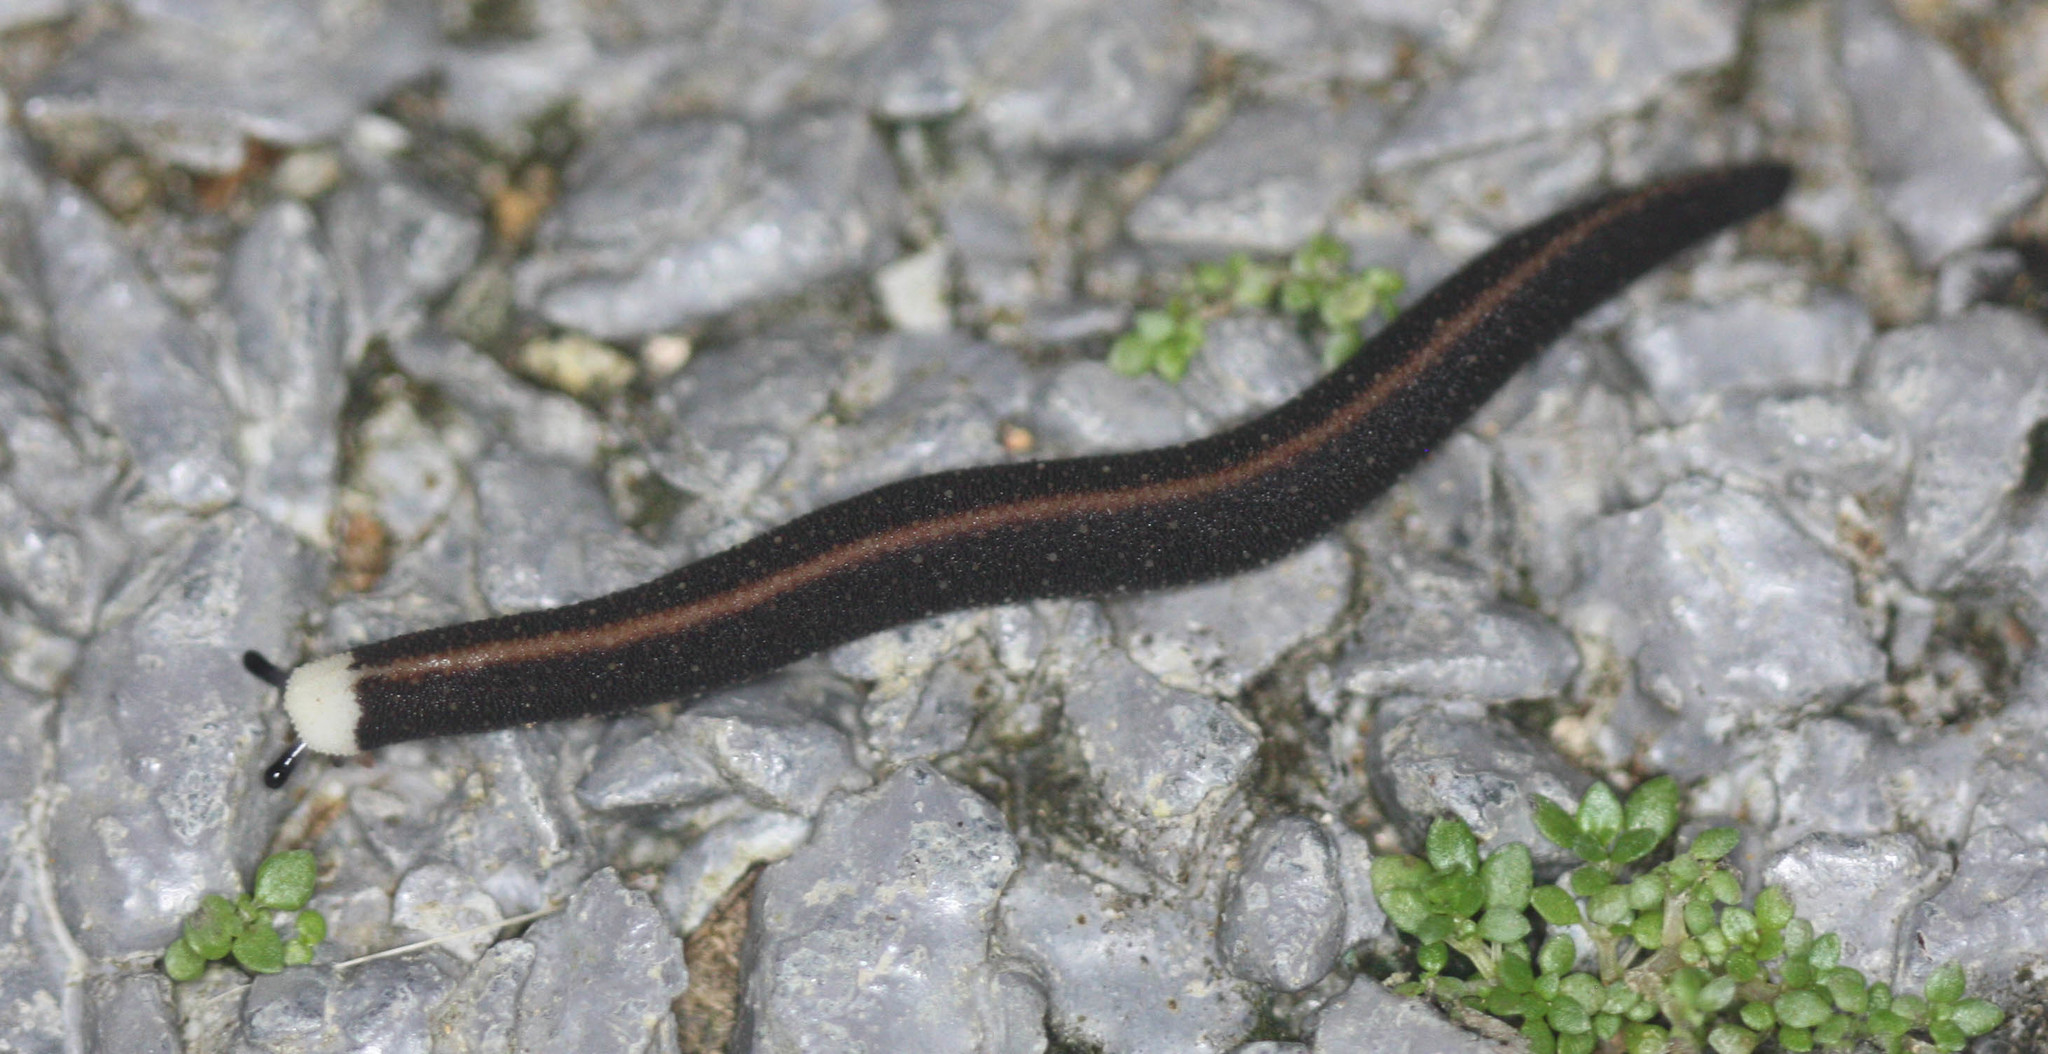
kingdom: Animalia
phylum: Mollusca
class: Gastropoda
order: Systellommatophora
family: Rathouisiidae
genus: Atopos
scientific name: Atopos rugosus
